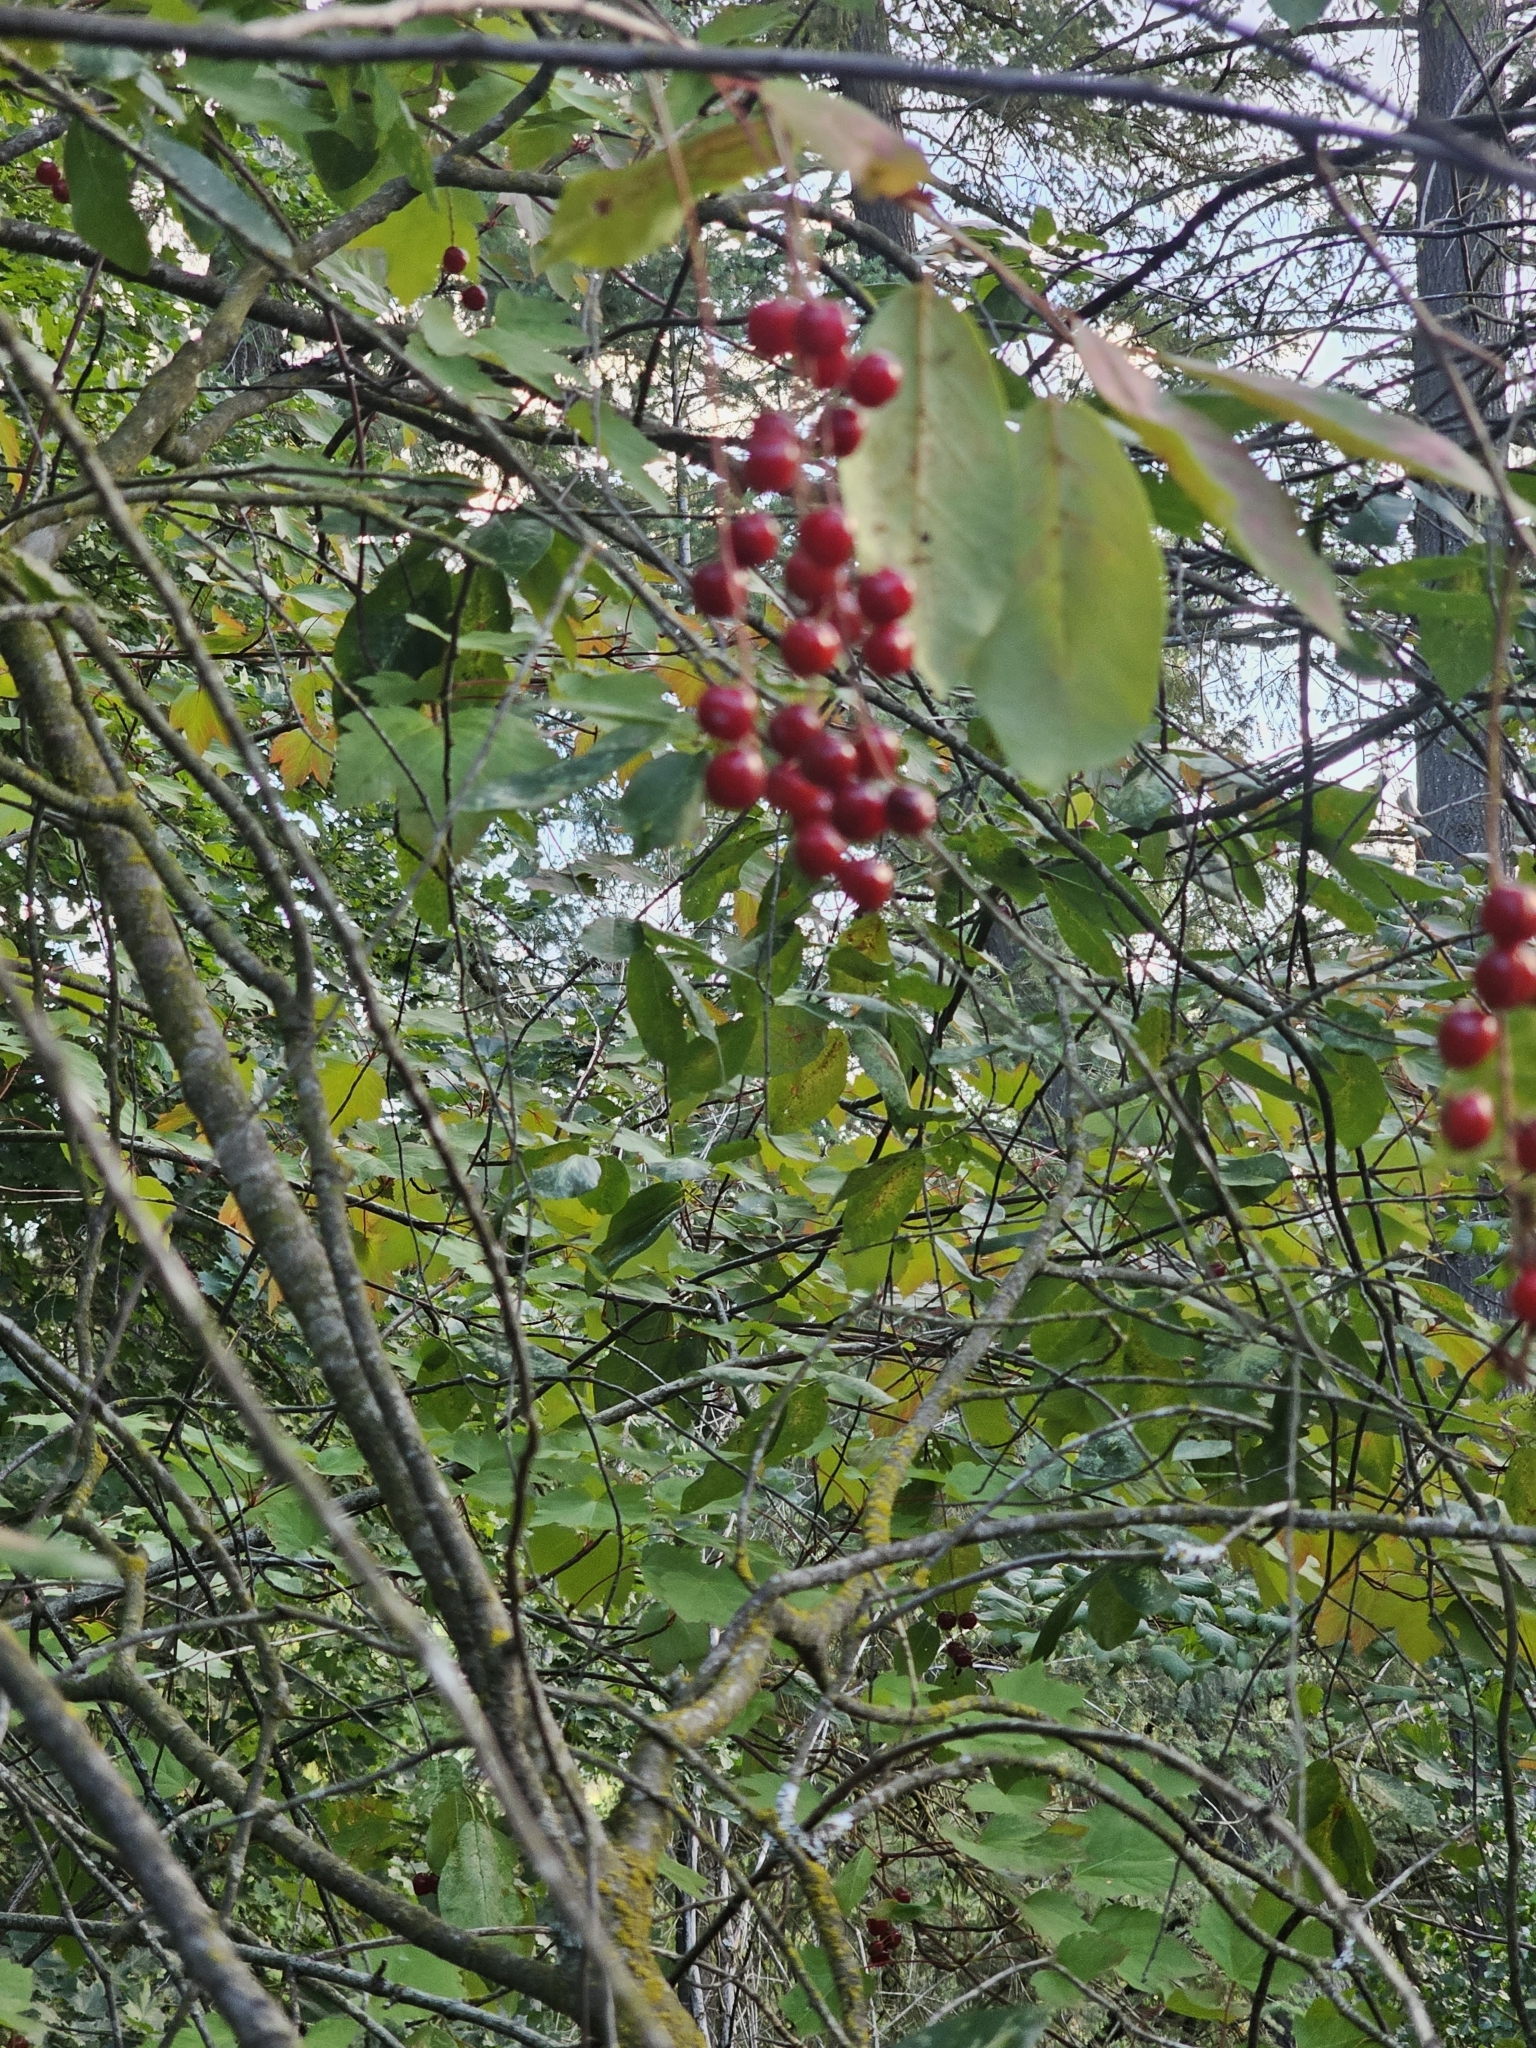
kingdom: Plantae
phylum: Tracheophyta
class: Magnoliopsida
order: Rosales
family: Rosaceae
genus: Prunus
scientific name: Prunus virginiana
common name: Chokecherry
